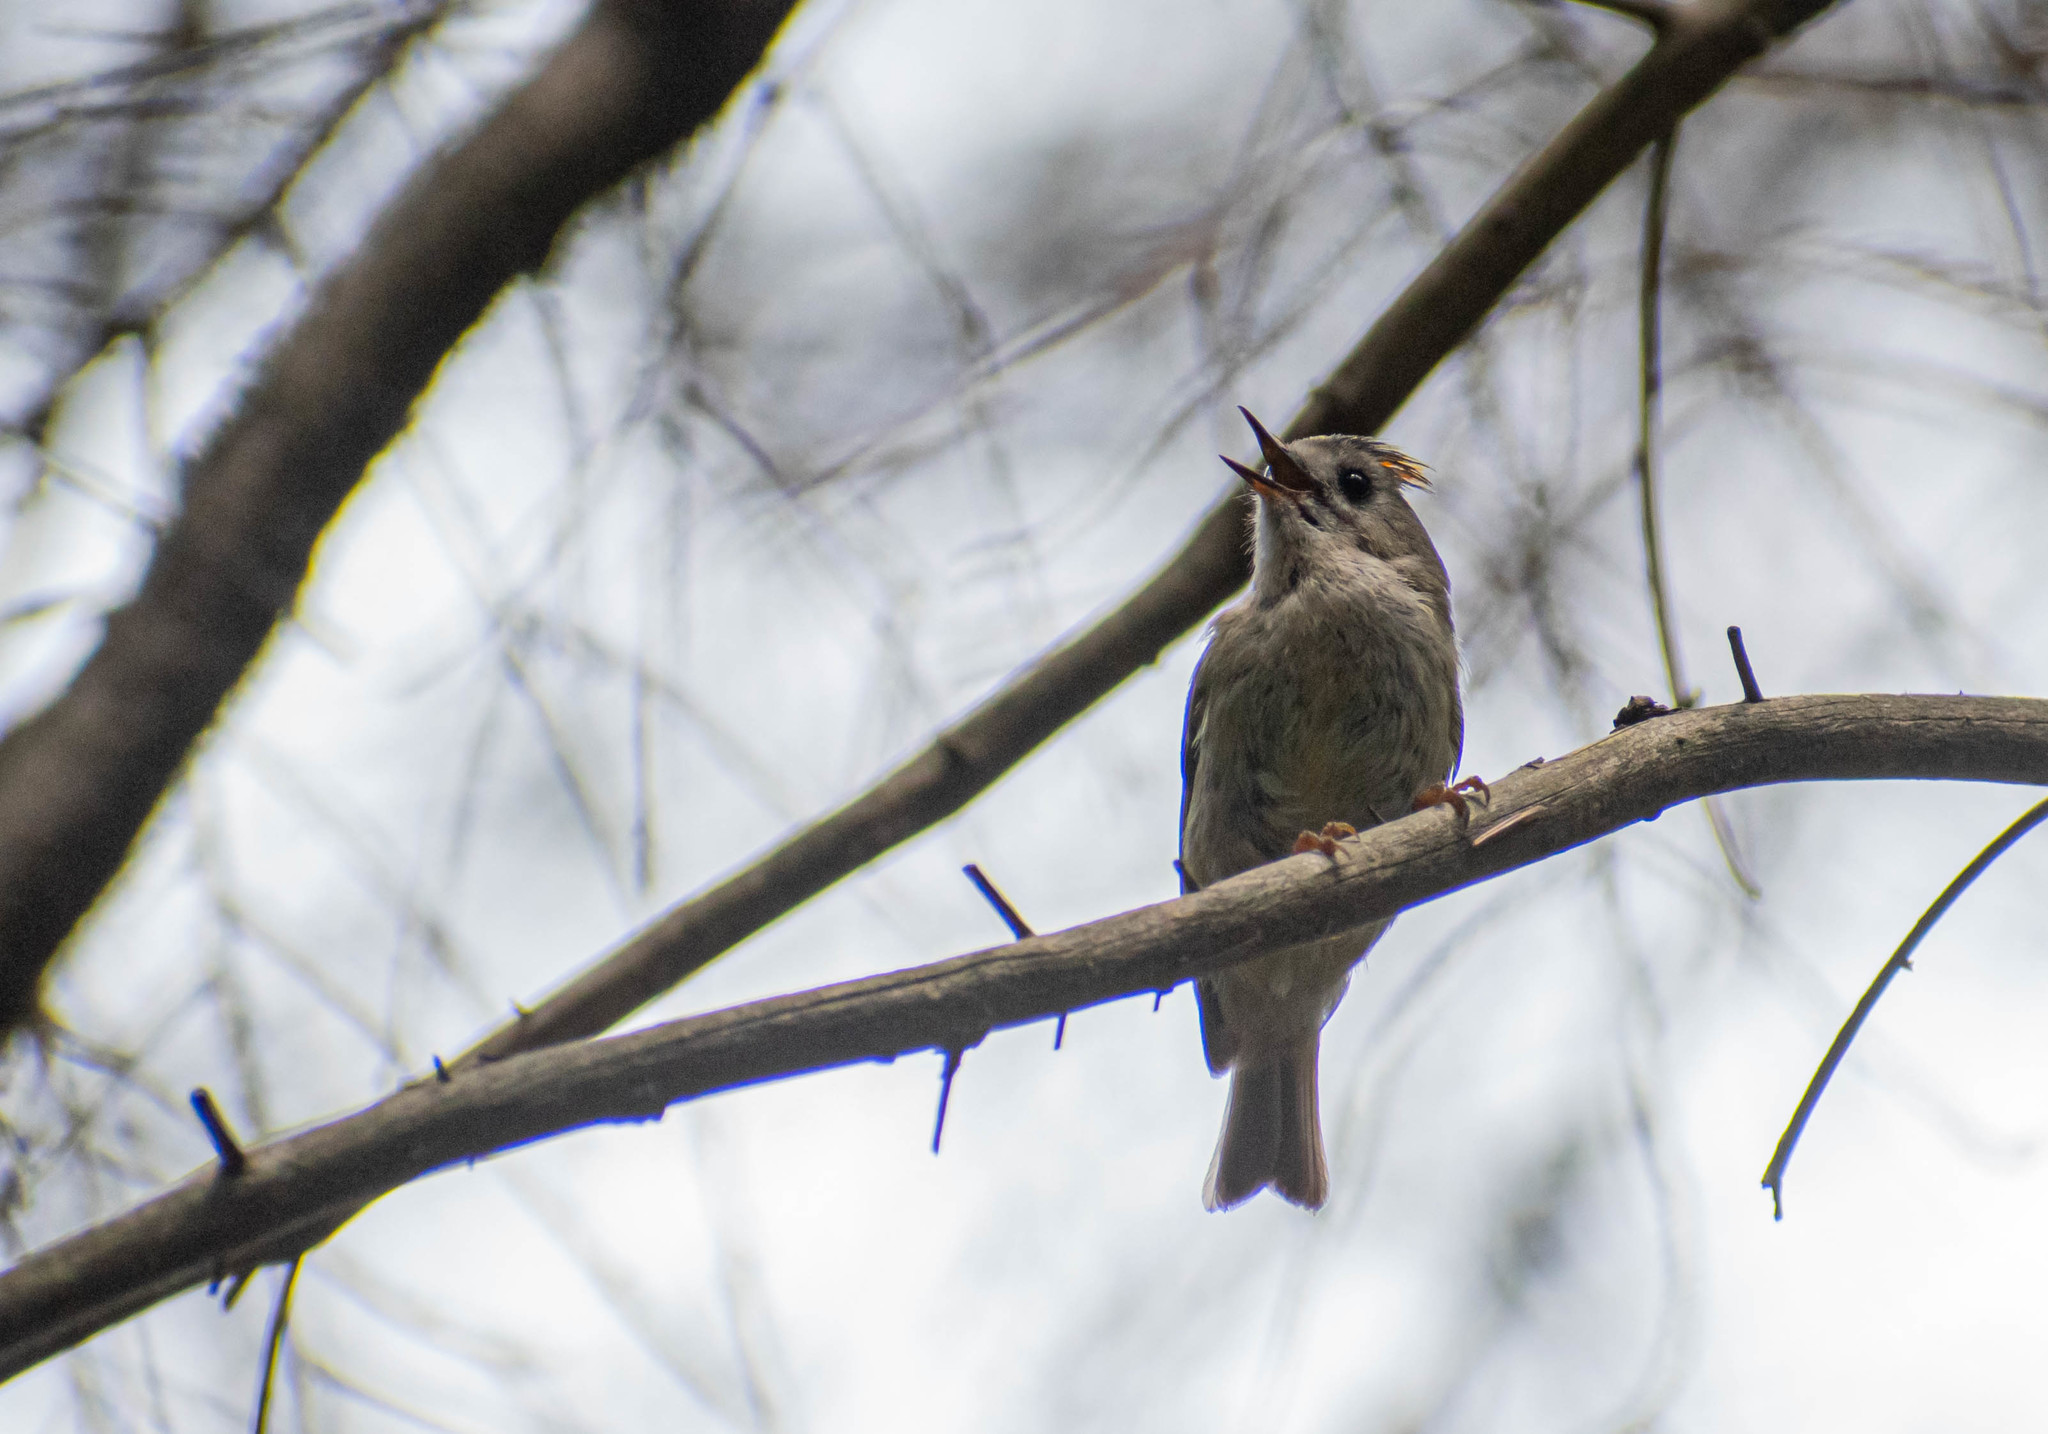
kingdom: Animalia
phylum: Chordata
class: Aves
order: Passeriformes
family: Regulidae
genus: Regulus
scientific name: Regulus regulus
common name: Goldcrest
